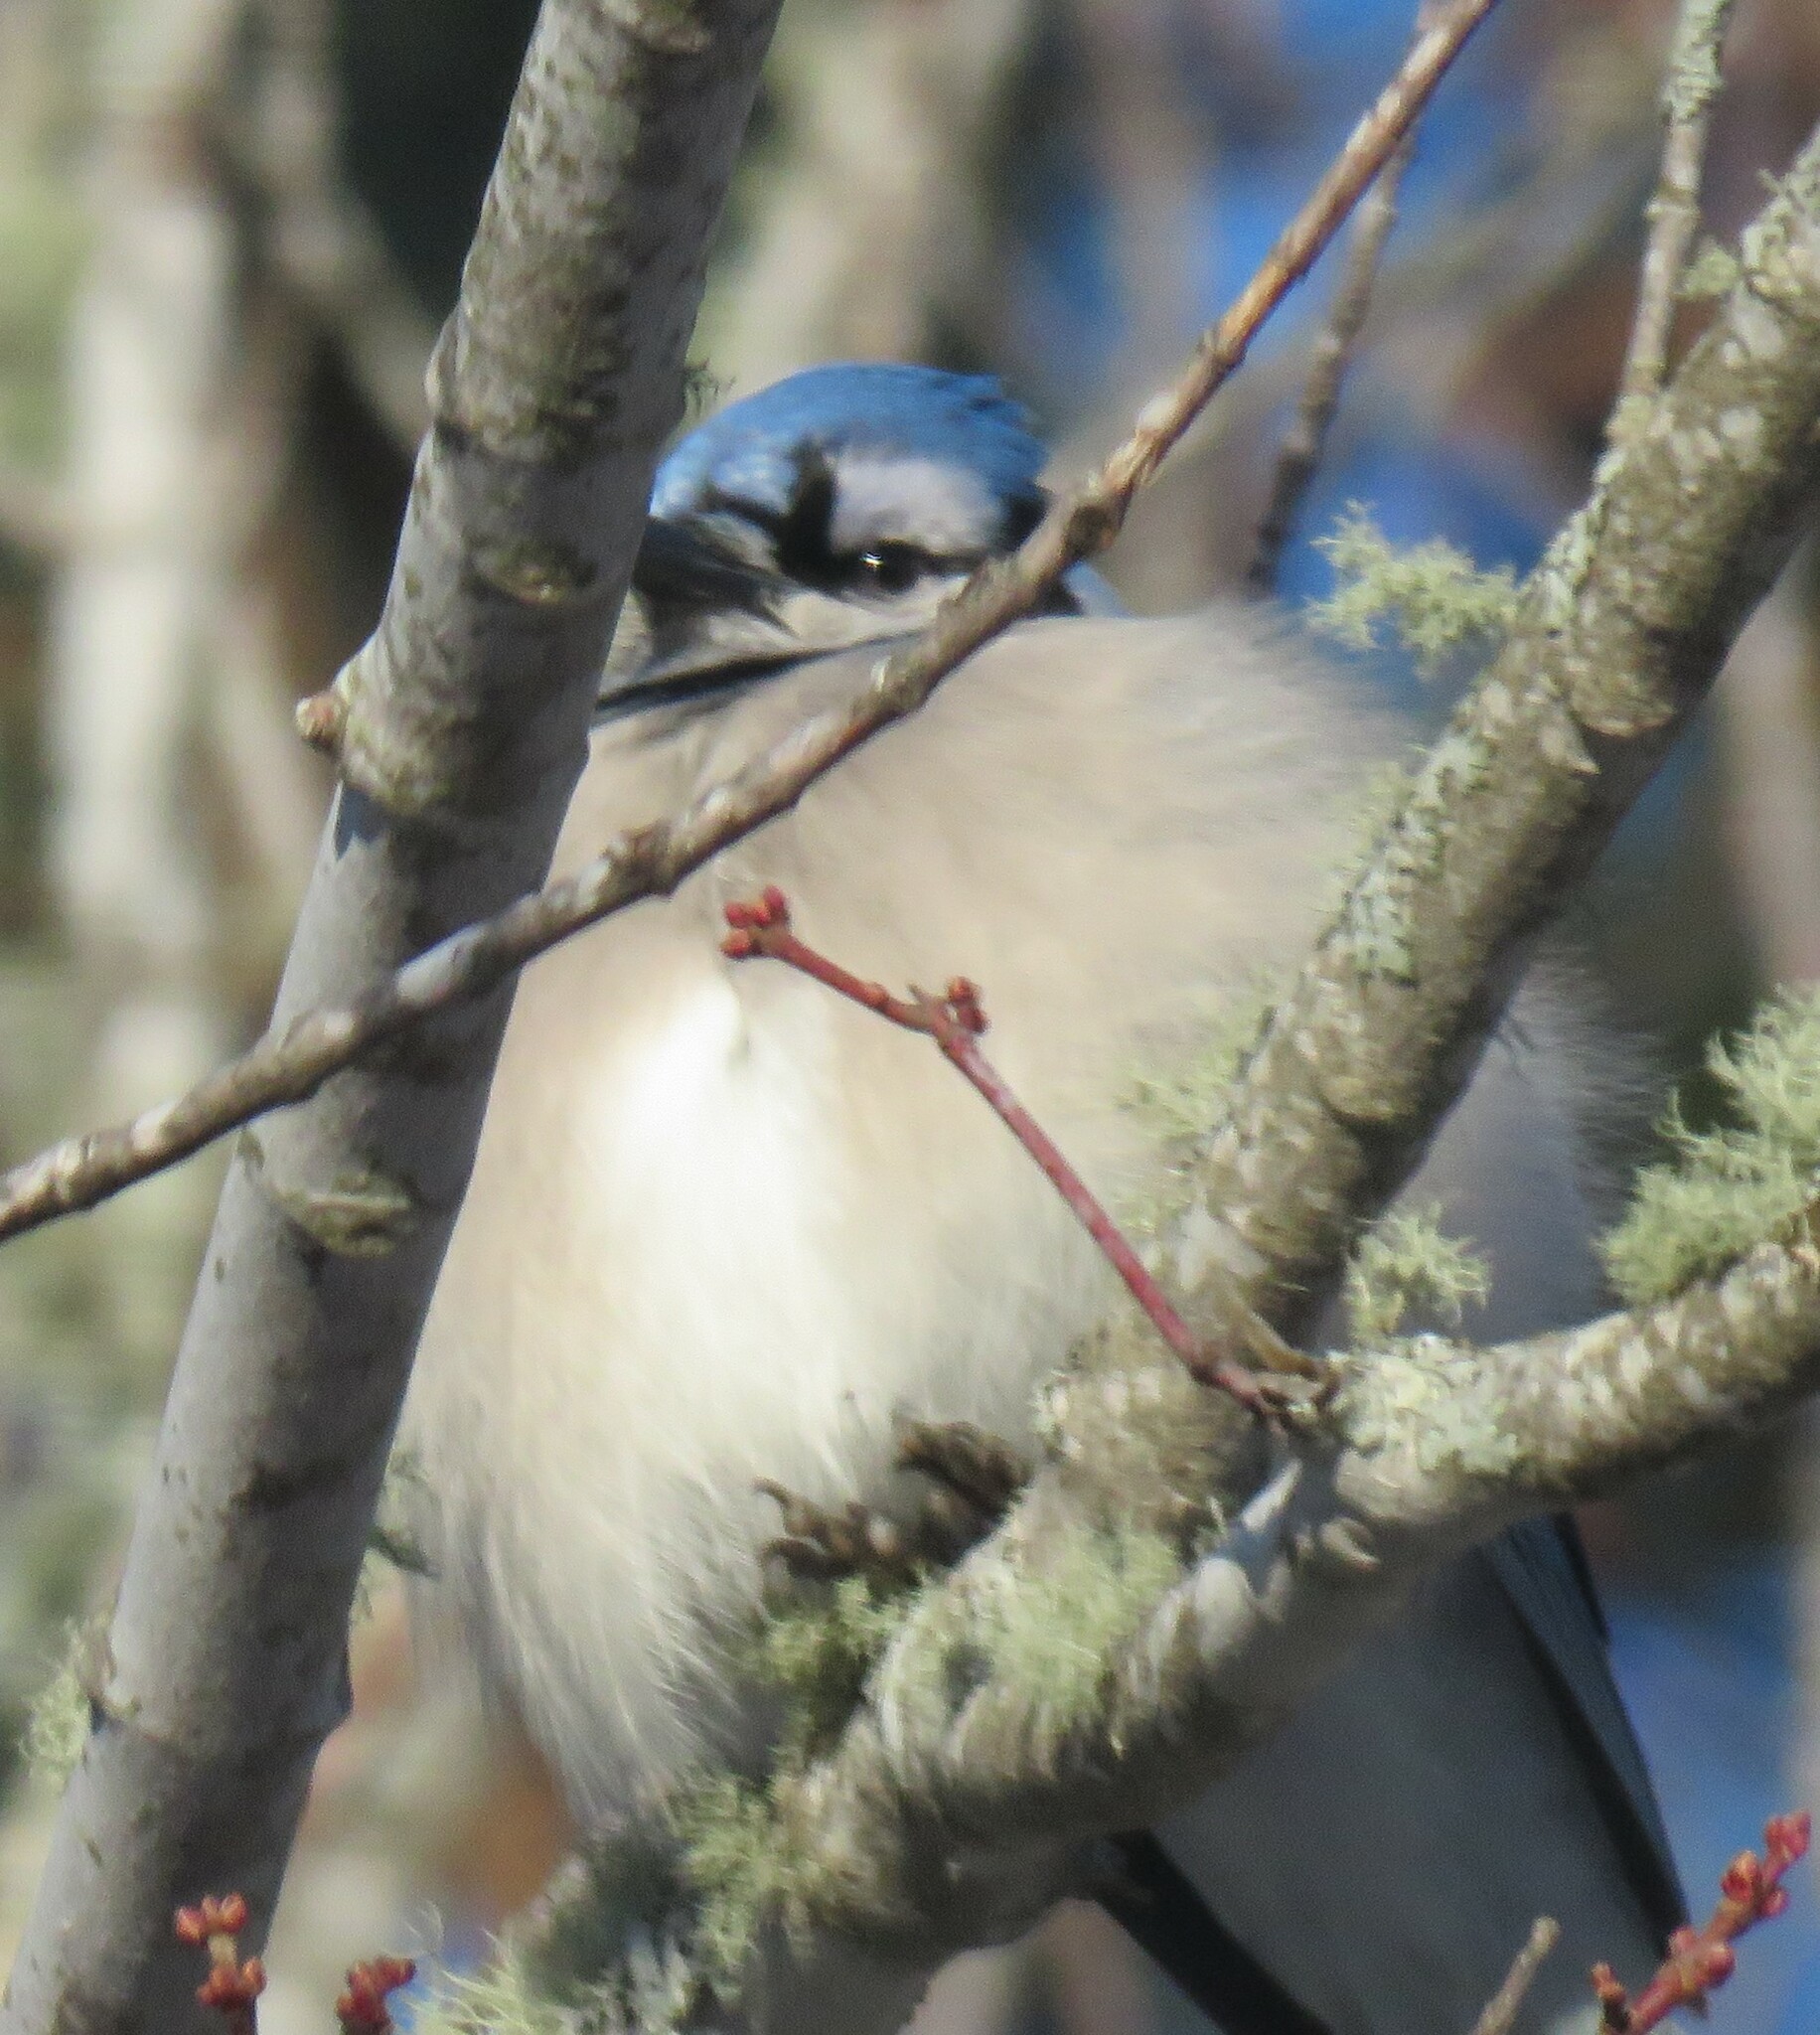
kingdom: Animalia
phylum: Chordata
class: Aves
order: Passeriformes
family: Corvidae
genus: Cyanocitta
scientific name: Cyanocitta cristata
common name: Blue jay
